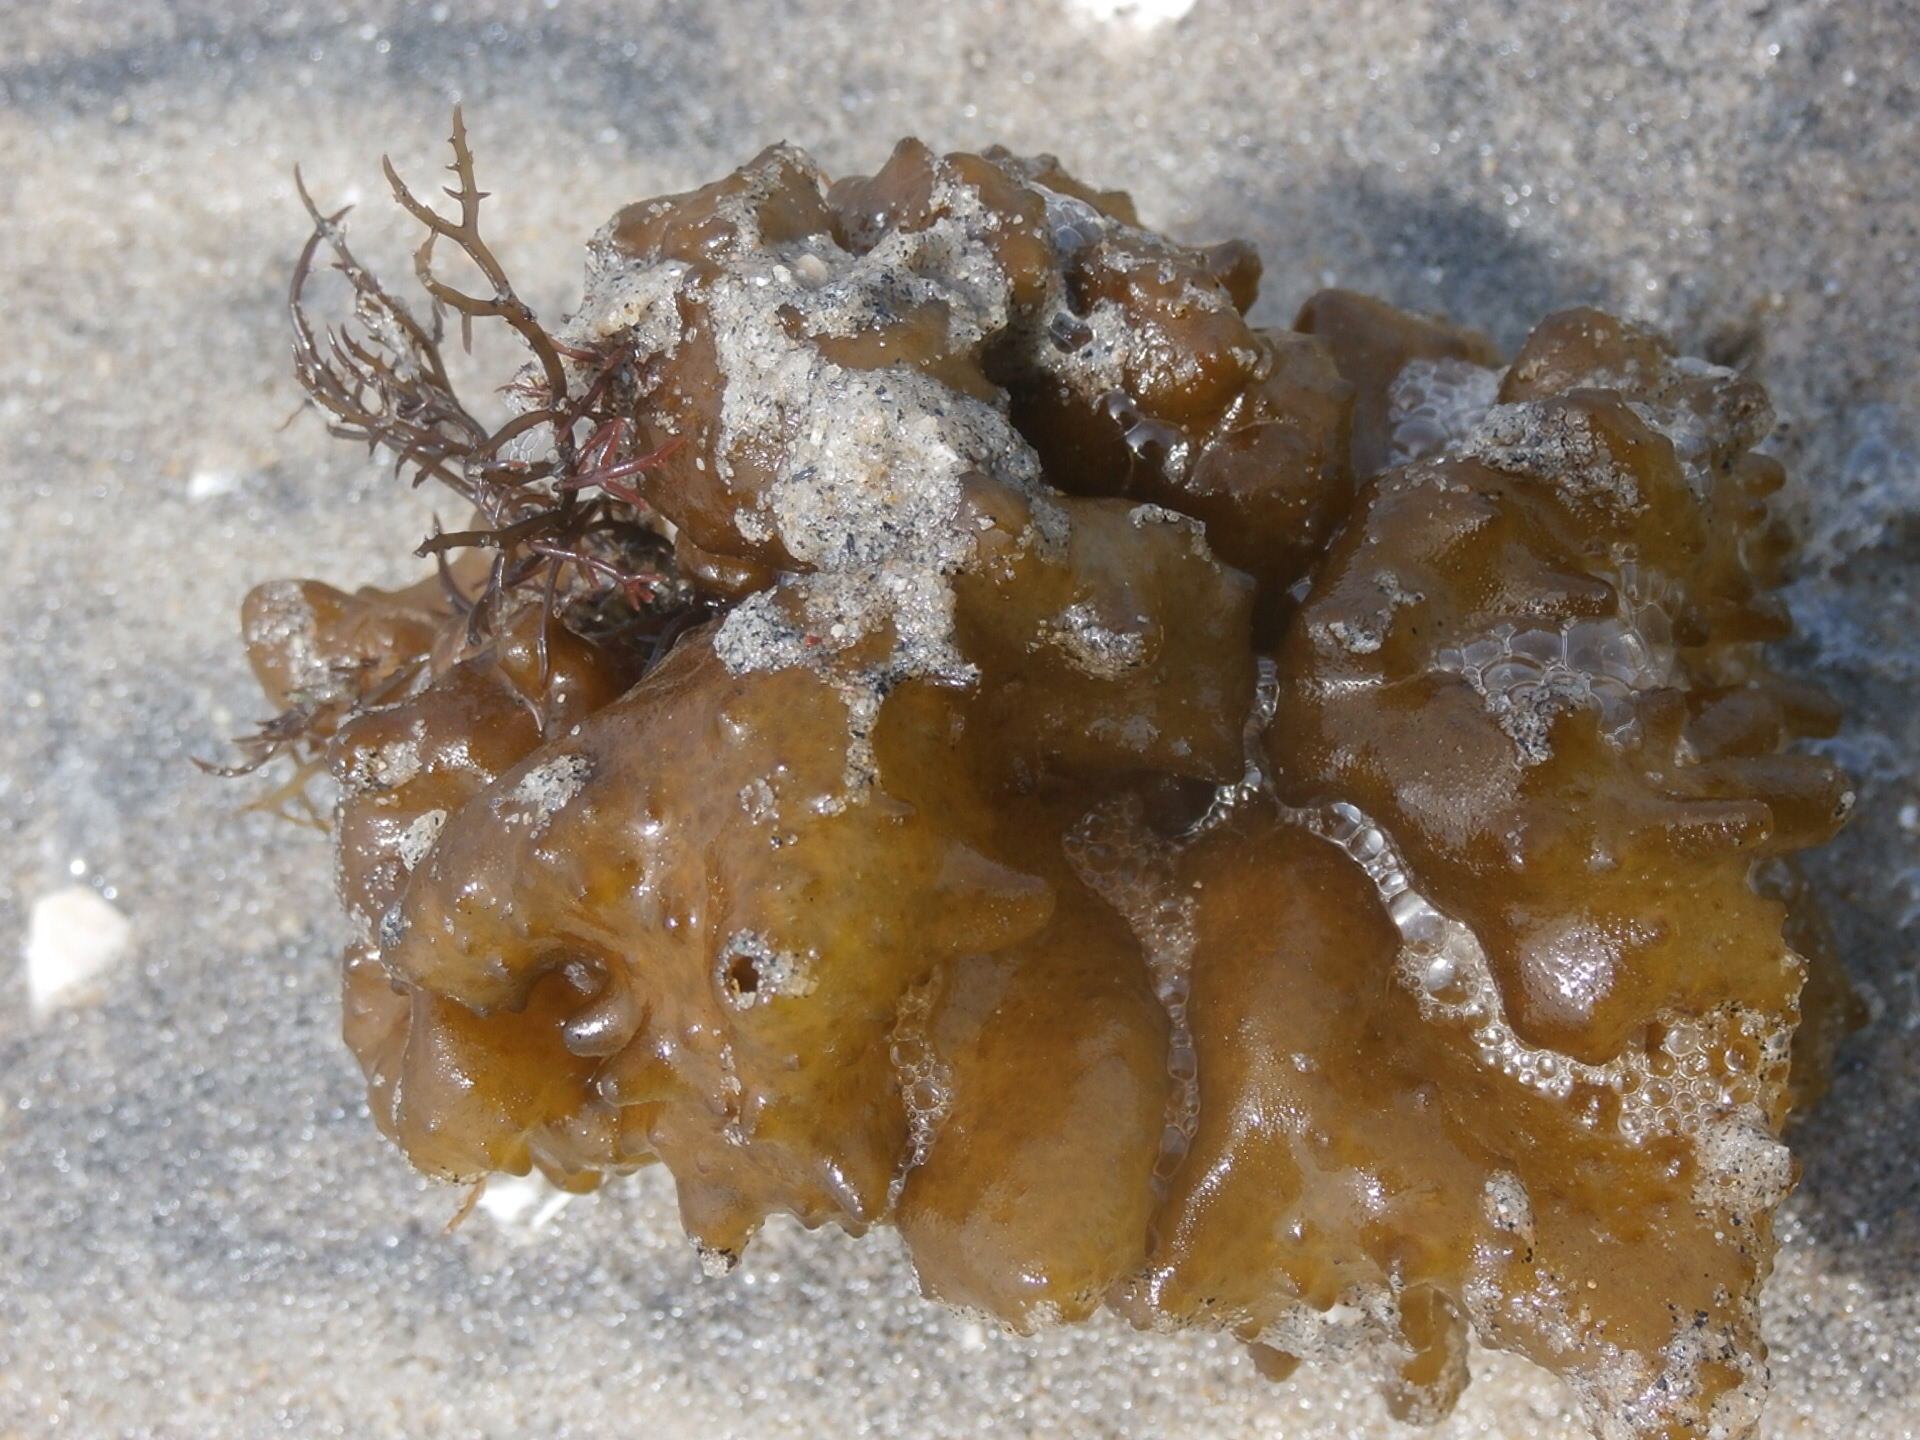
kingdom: Chromista
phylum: Ochrophyta
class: Phaeophyceae
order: Scytosiphonales
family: Scytosiphonaceae
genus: Colpomenia
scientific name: Colpomenia
